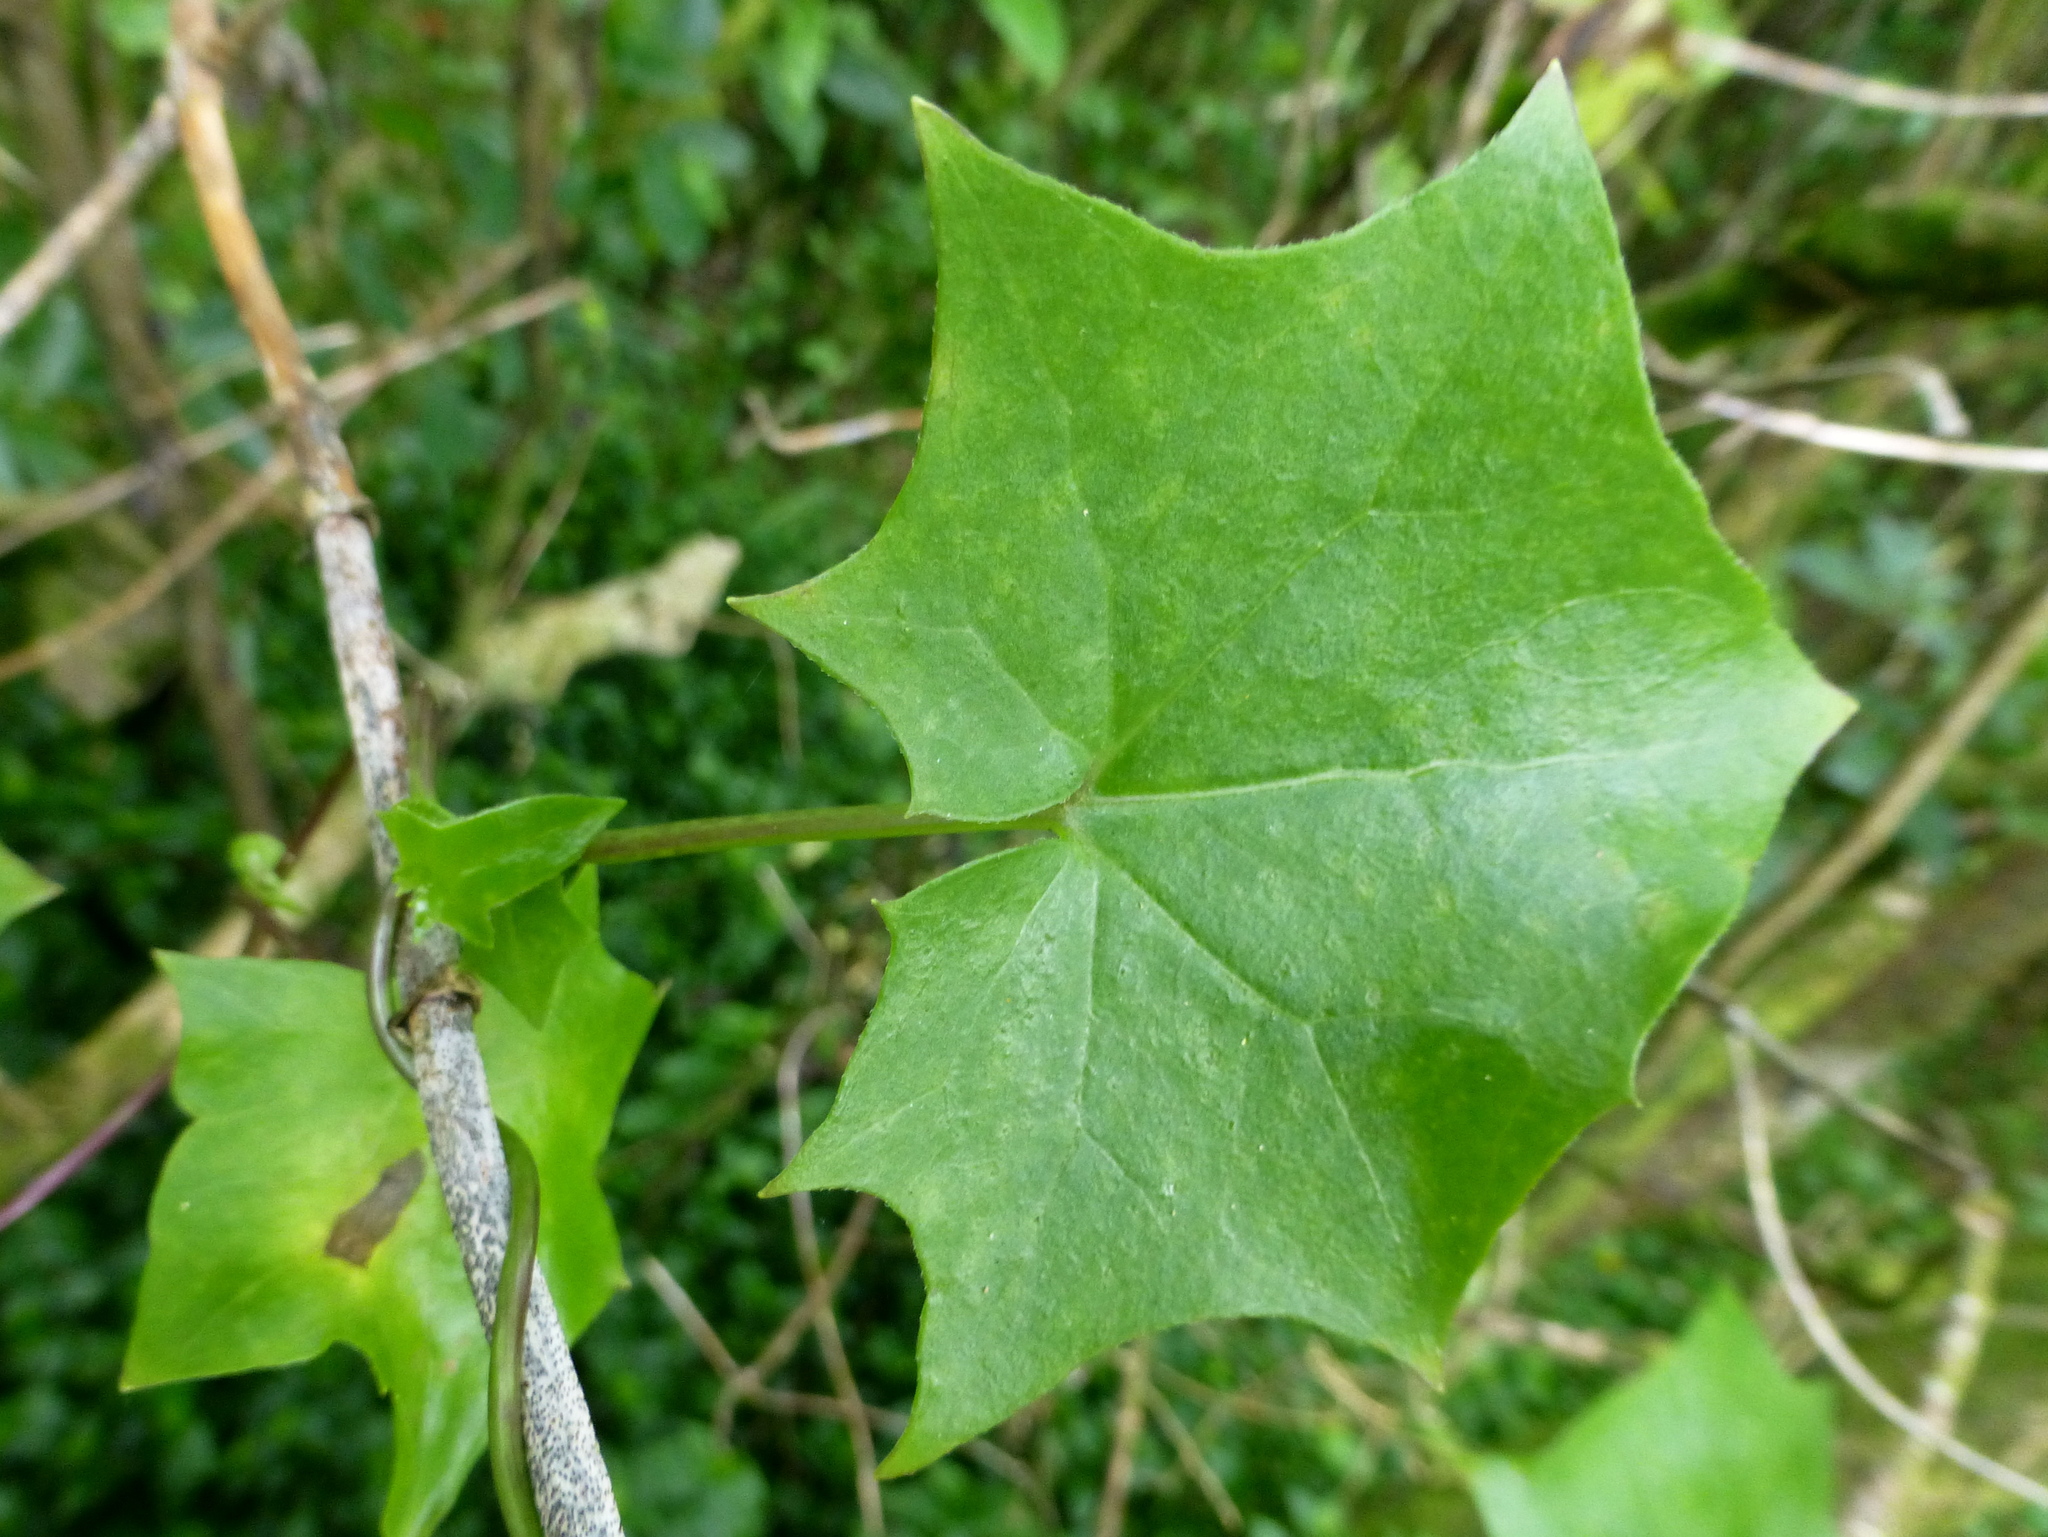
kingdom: Plantae
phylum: Tracheophyta
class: Magnoliopsida
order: Asterales
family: Asteraceae
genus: Delairea
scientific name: Delairea odorata
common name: Cape-ivy
